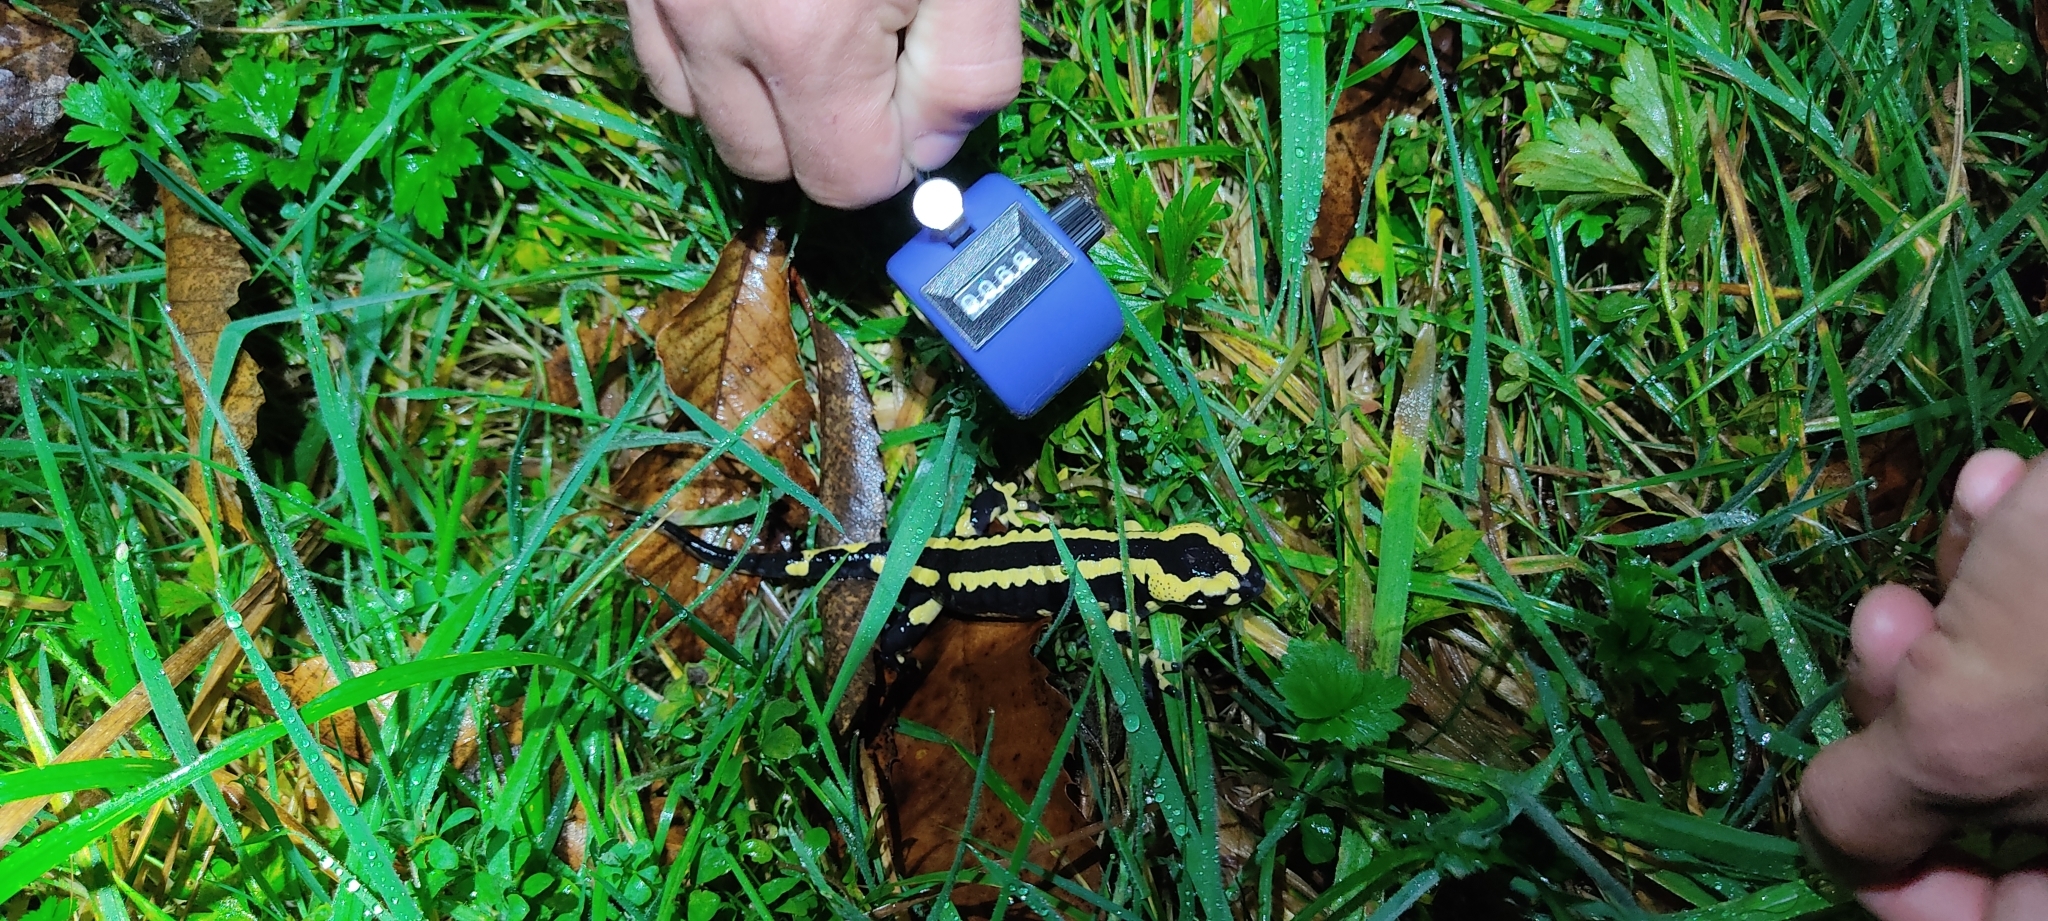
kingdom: Animalia
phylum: Chordata
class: Amphibia
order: Caudata
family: Salamandridae
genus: Salamandra
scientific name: Salamandra salamandra
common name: Fire salamander
